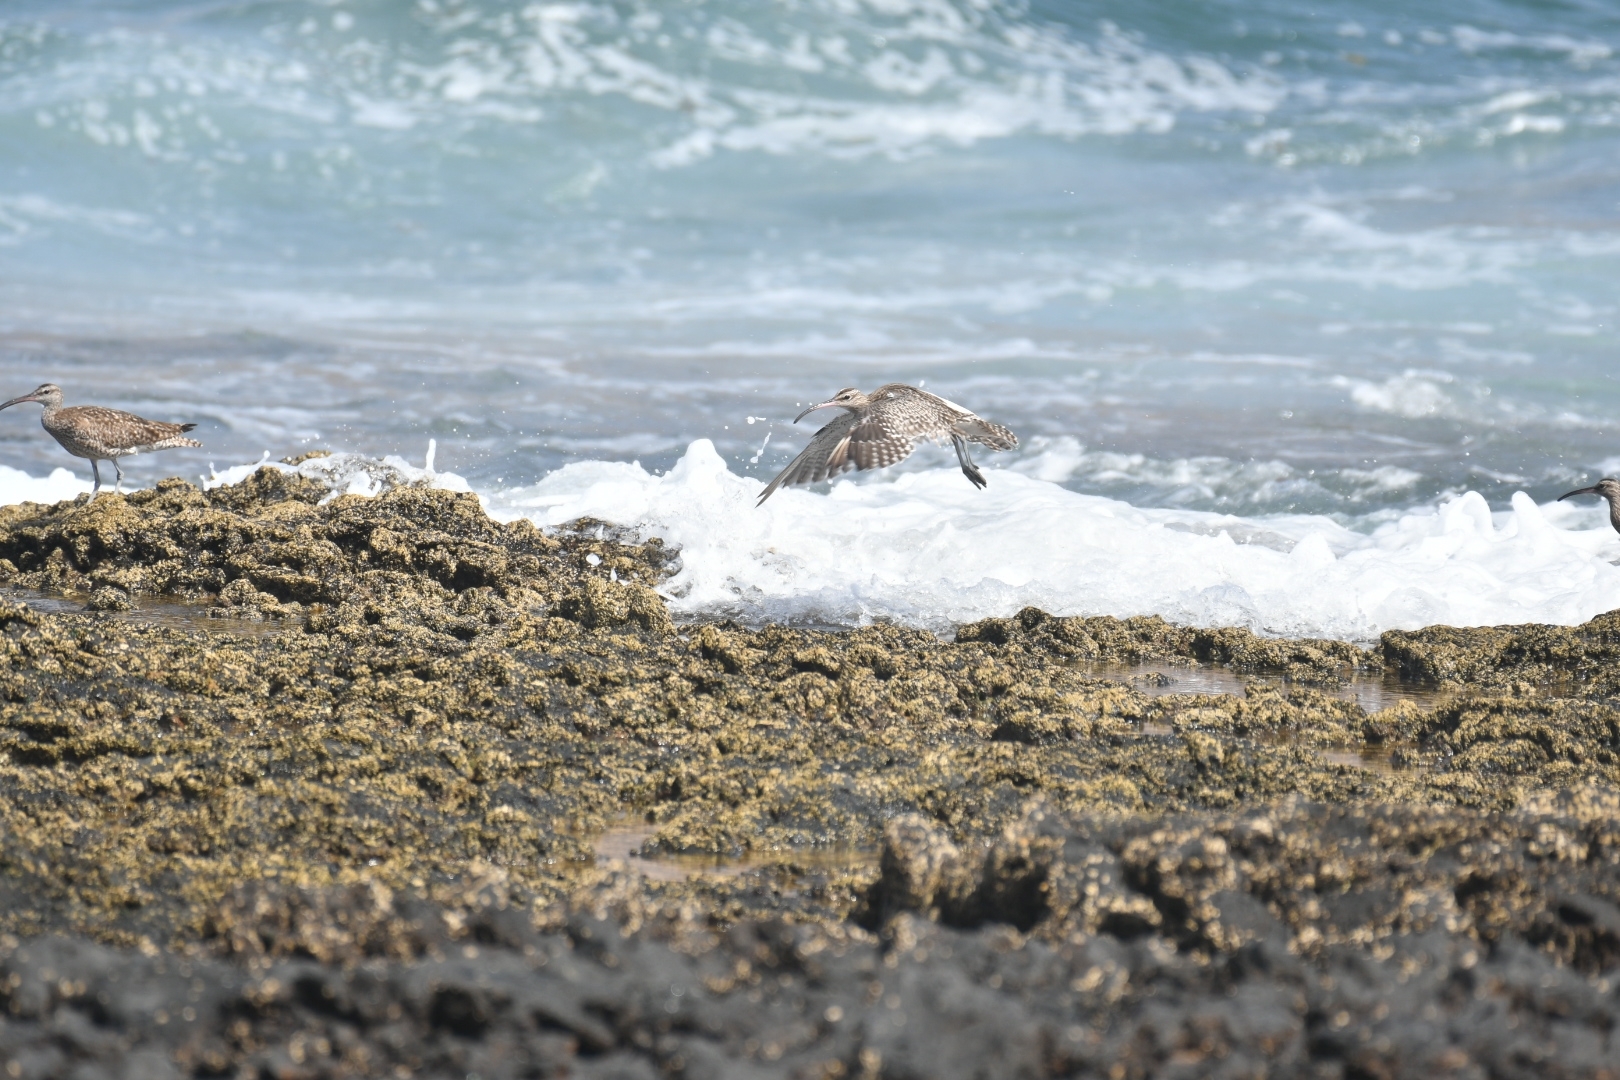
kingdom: Animalia
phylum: Chordata
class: Aves
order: Charadriiformes
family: Scolopacidae
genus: Numenius
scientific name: Numenius phaeopus
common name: Whimbrel
